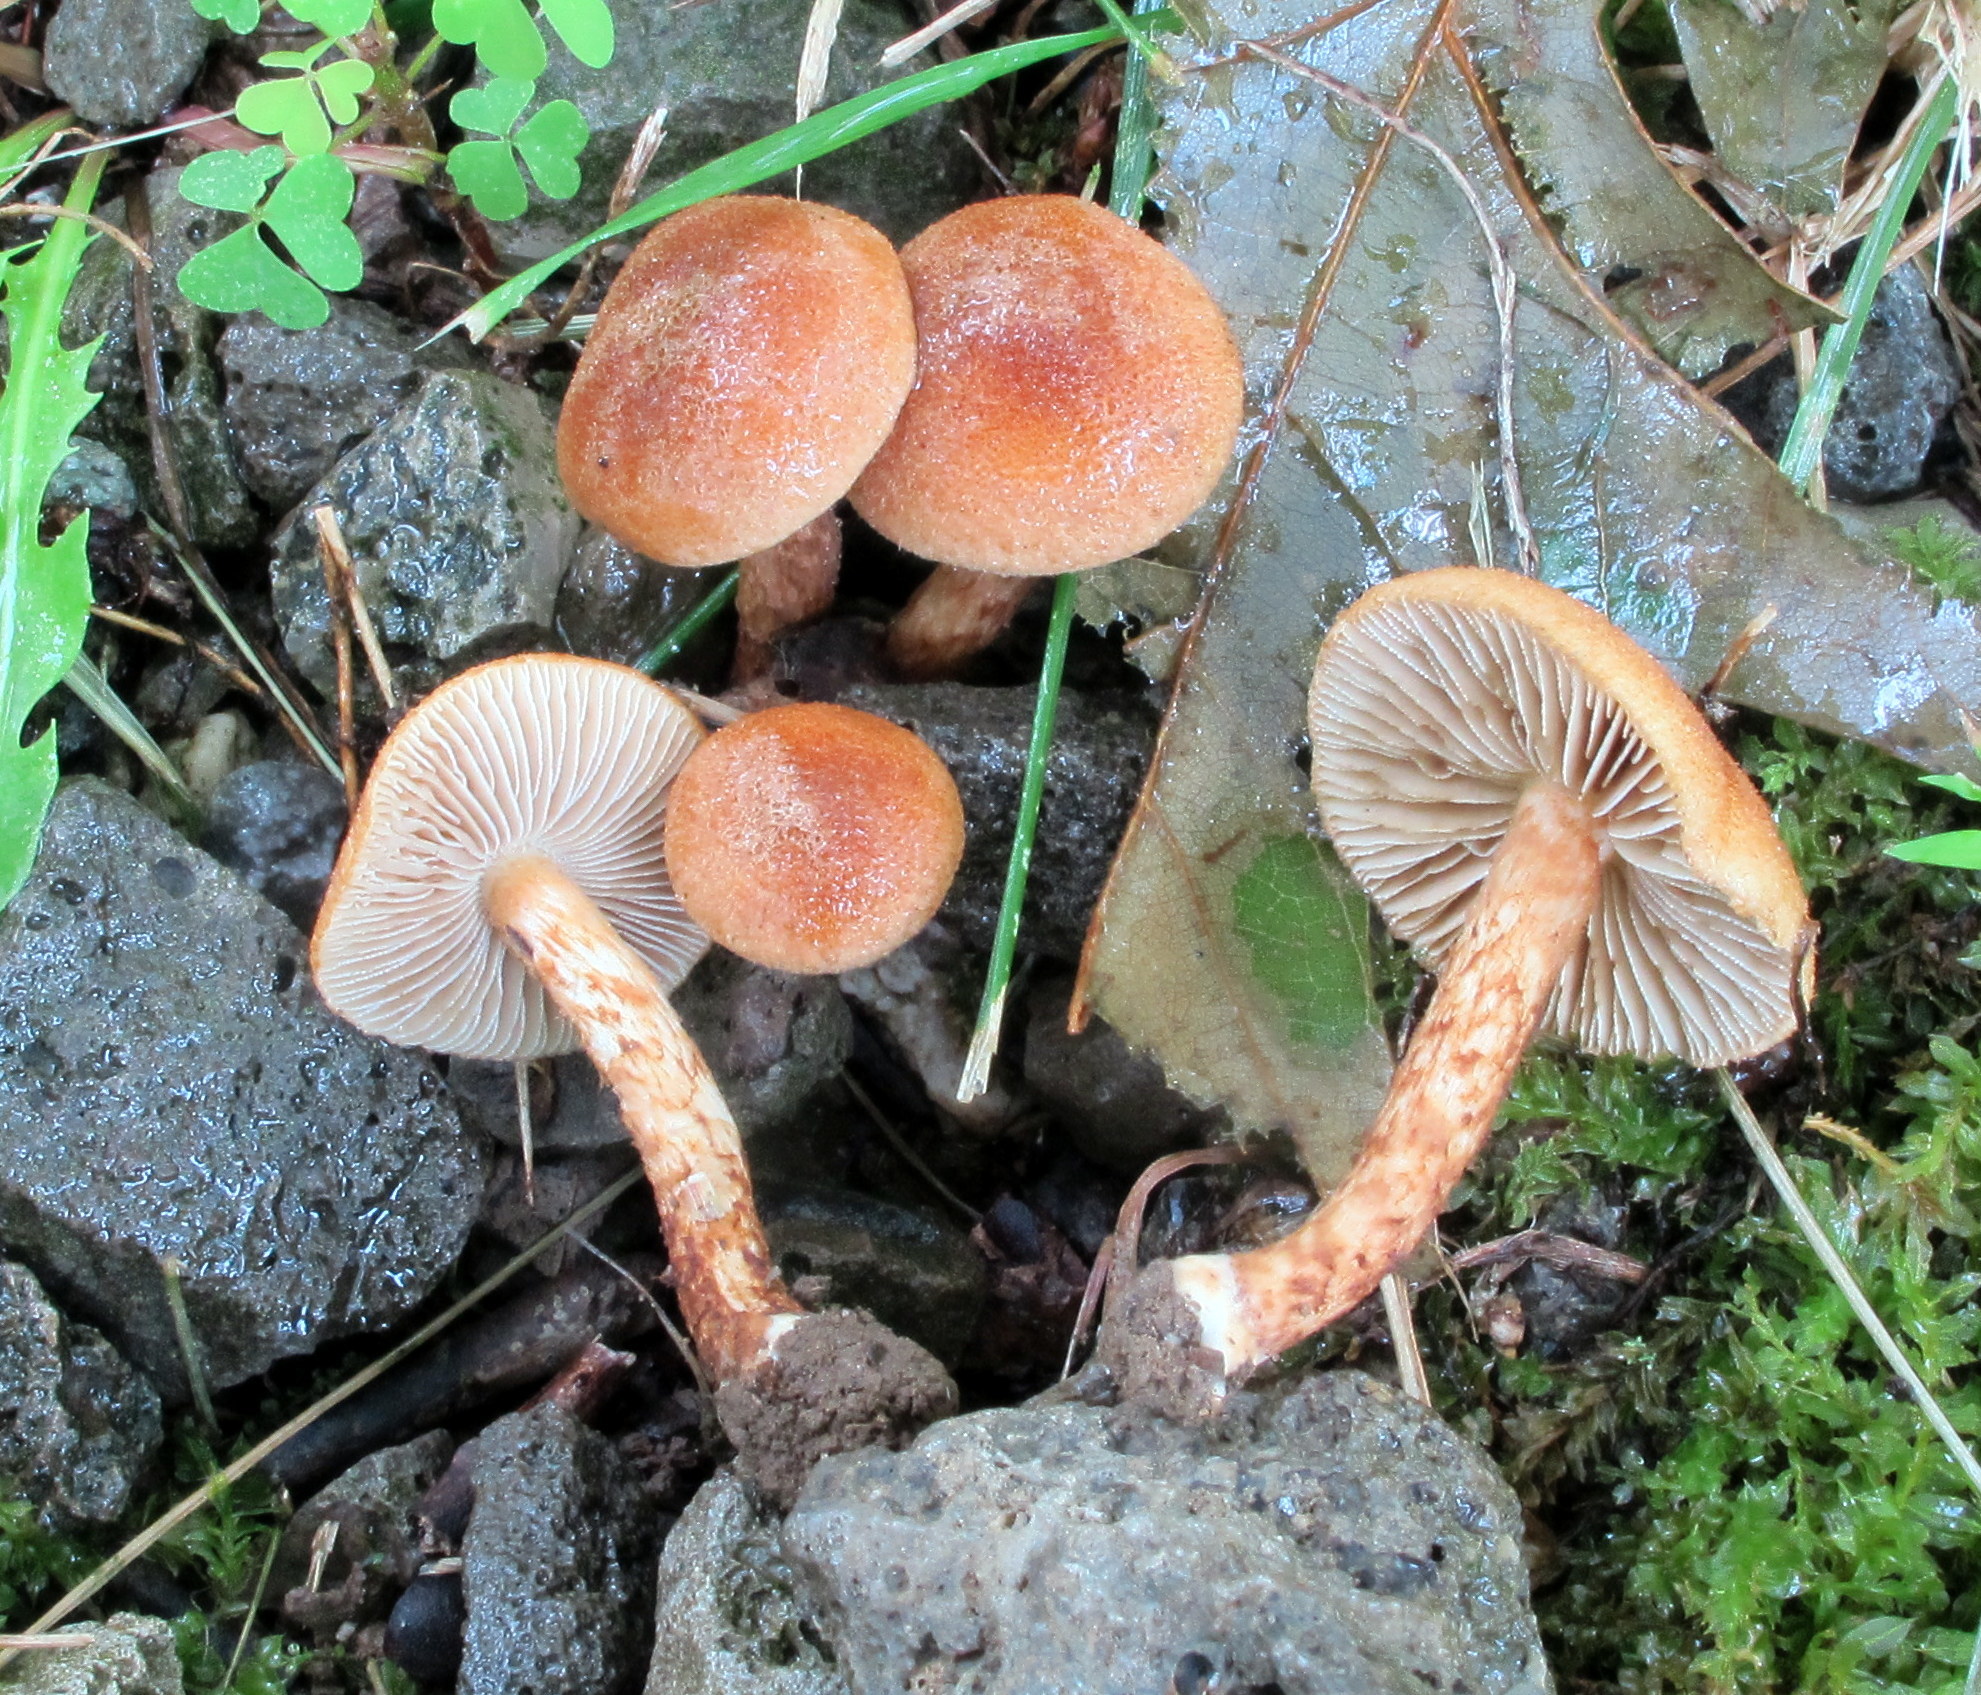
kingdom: Fungi
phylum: Basidiomycota
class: Agaricomycetes
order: Agaricales
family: Inocybaceae
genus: Mallocybe
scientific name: Mallocybe unicolor
